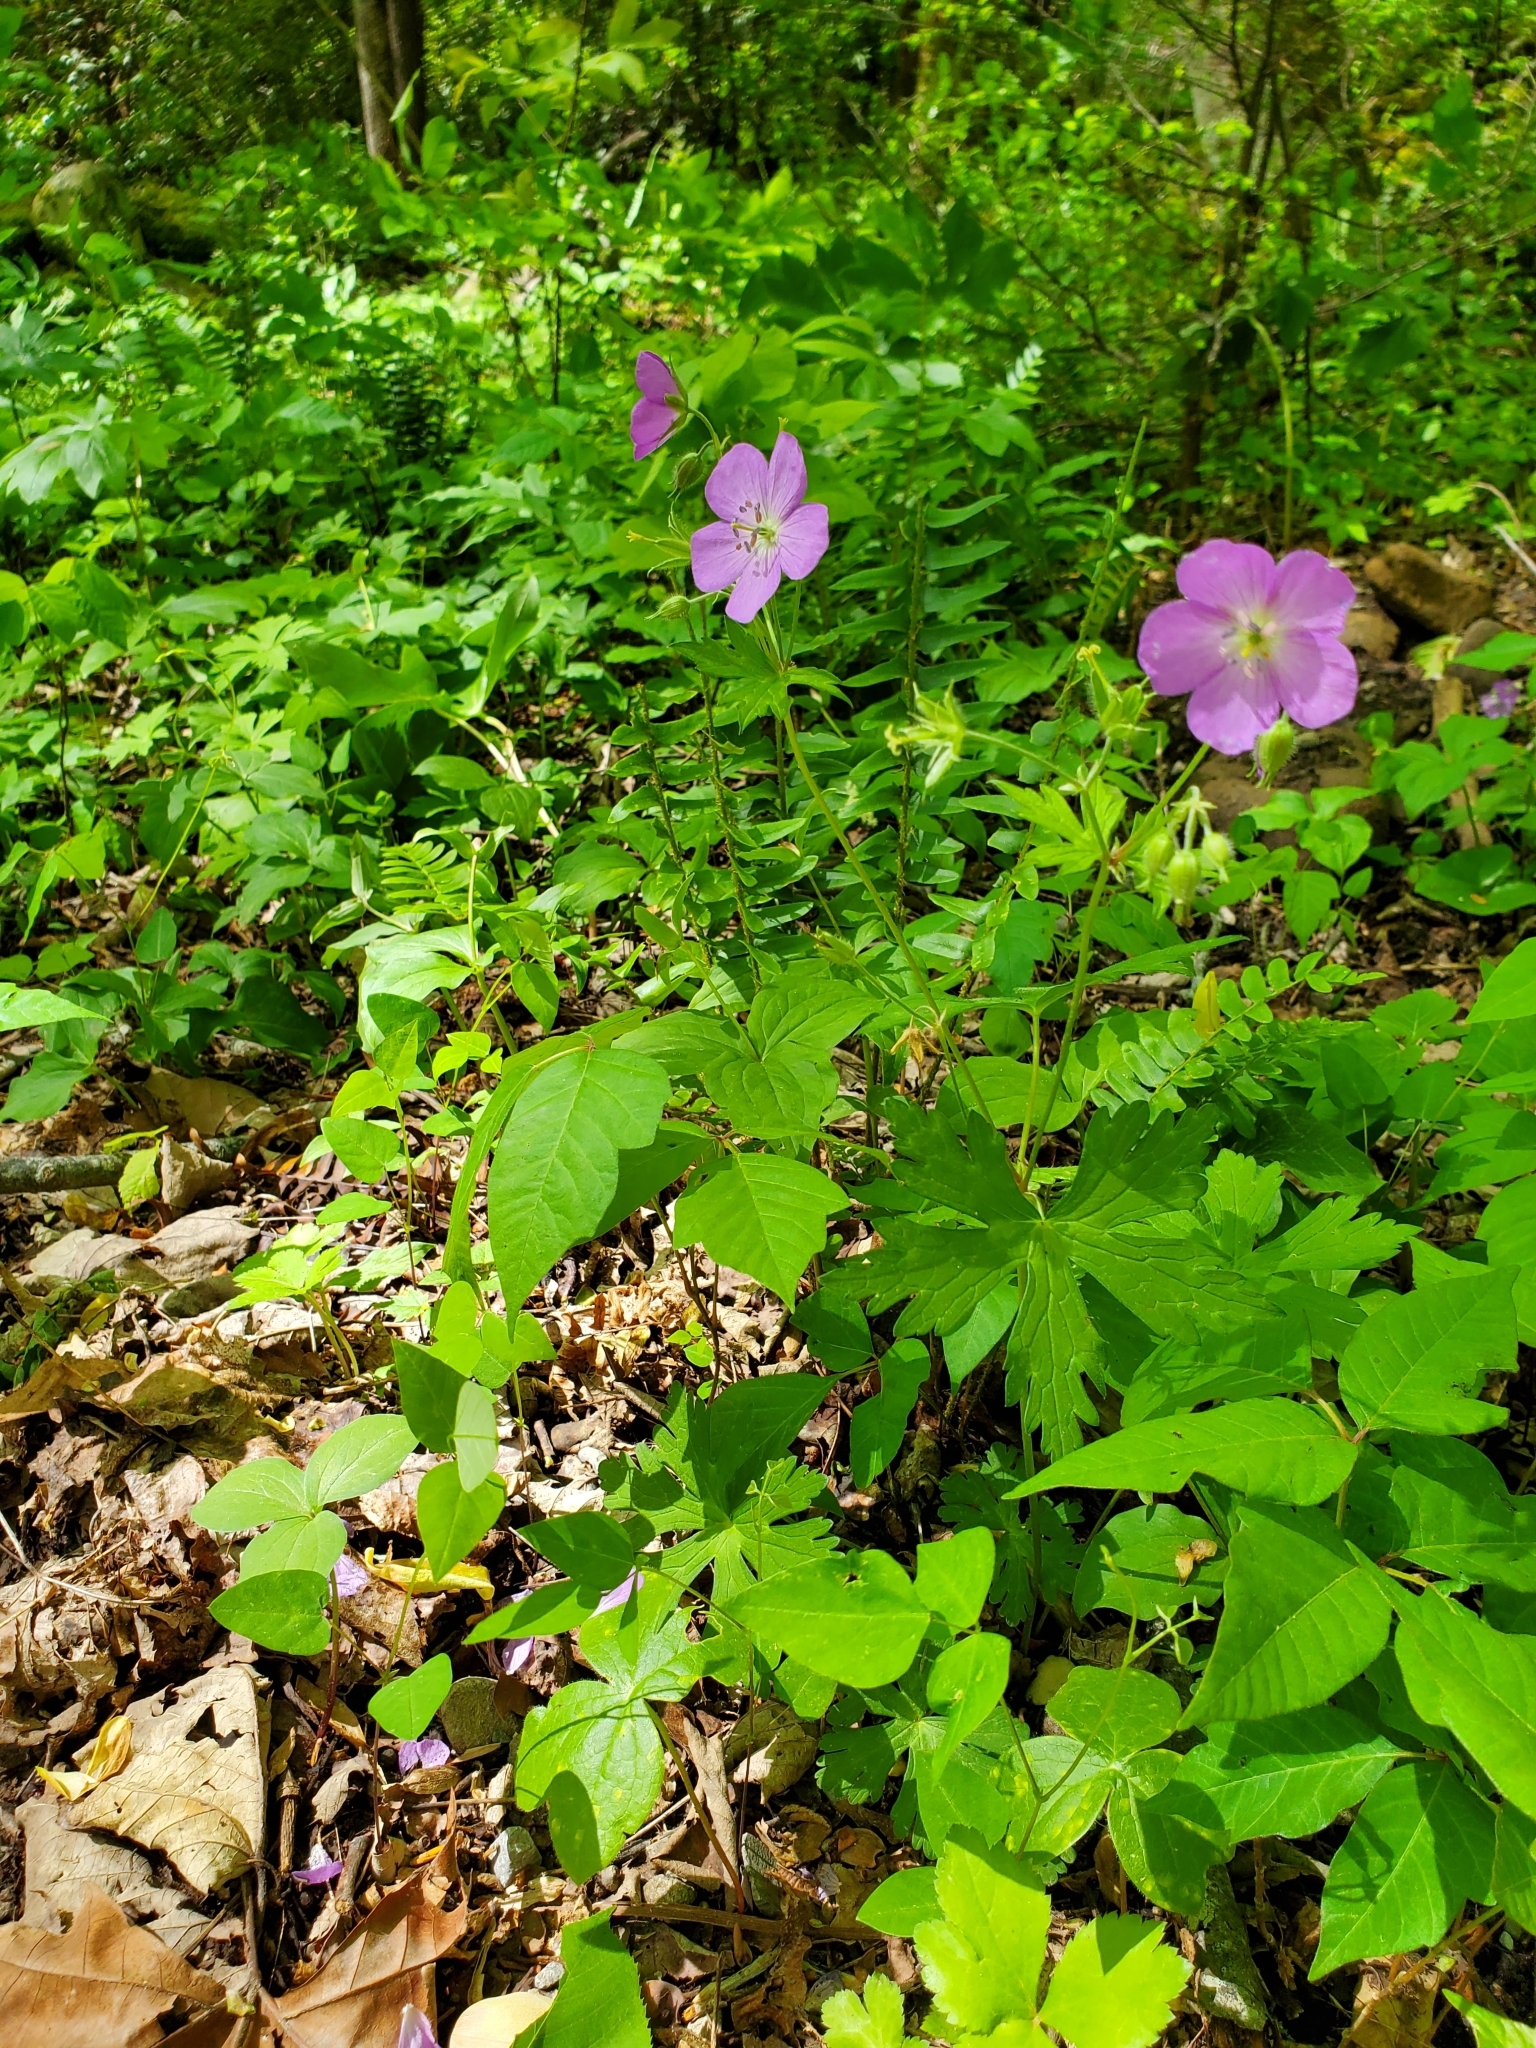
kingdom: Plantae
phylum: Tracheophyta
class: Magnoliopsida
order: Geraniales
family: Geraniaceae
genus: Geranium
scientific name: Geranium maculatum
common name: Spotted geranium
